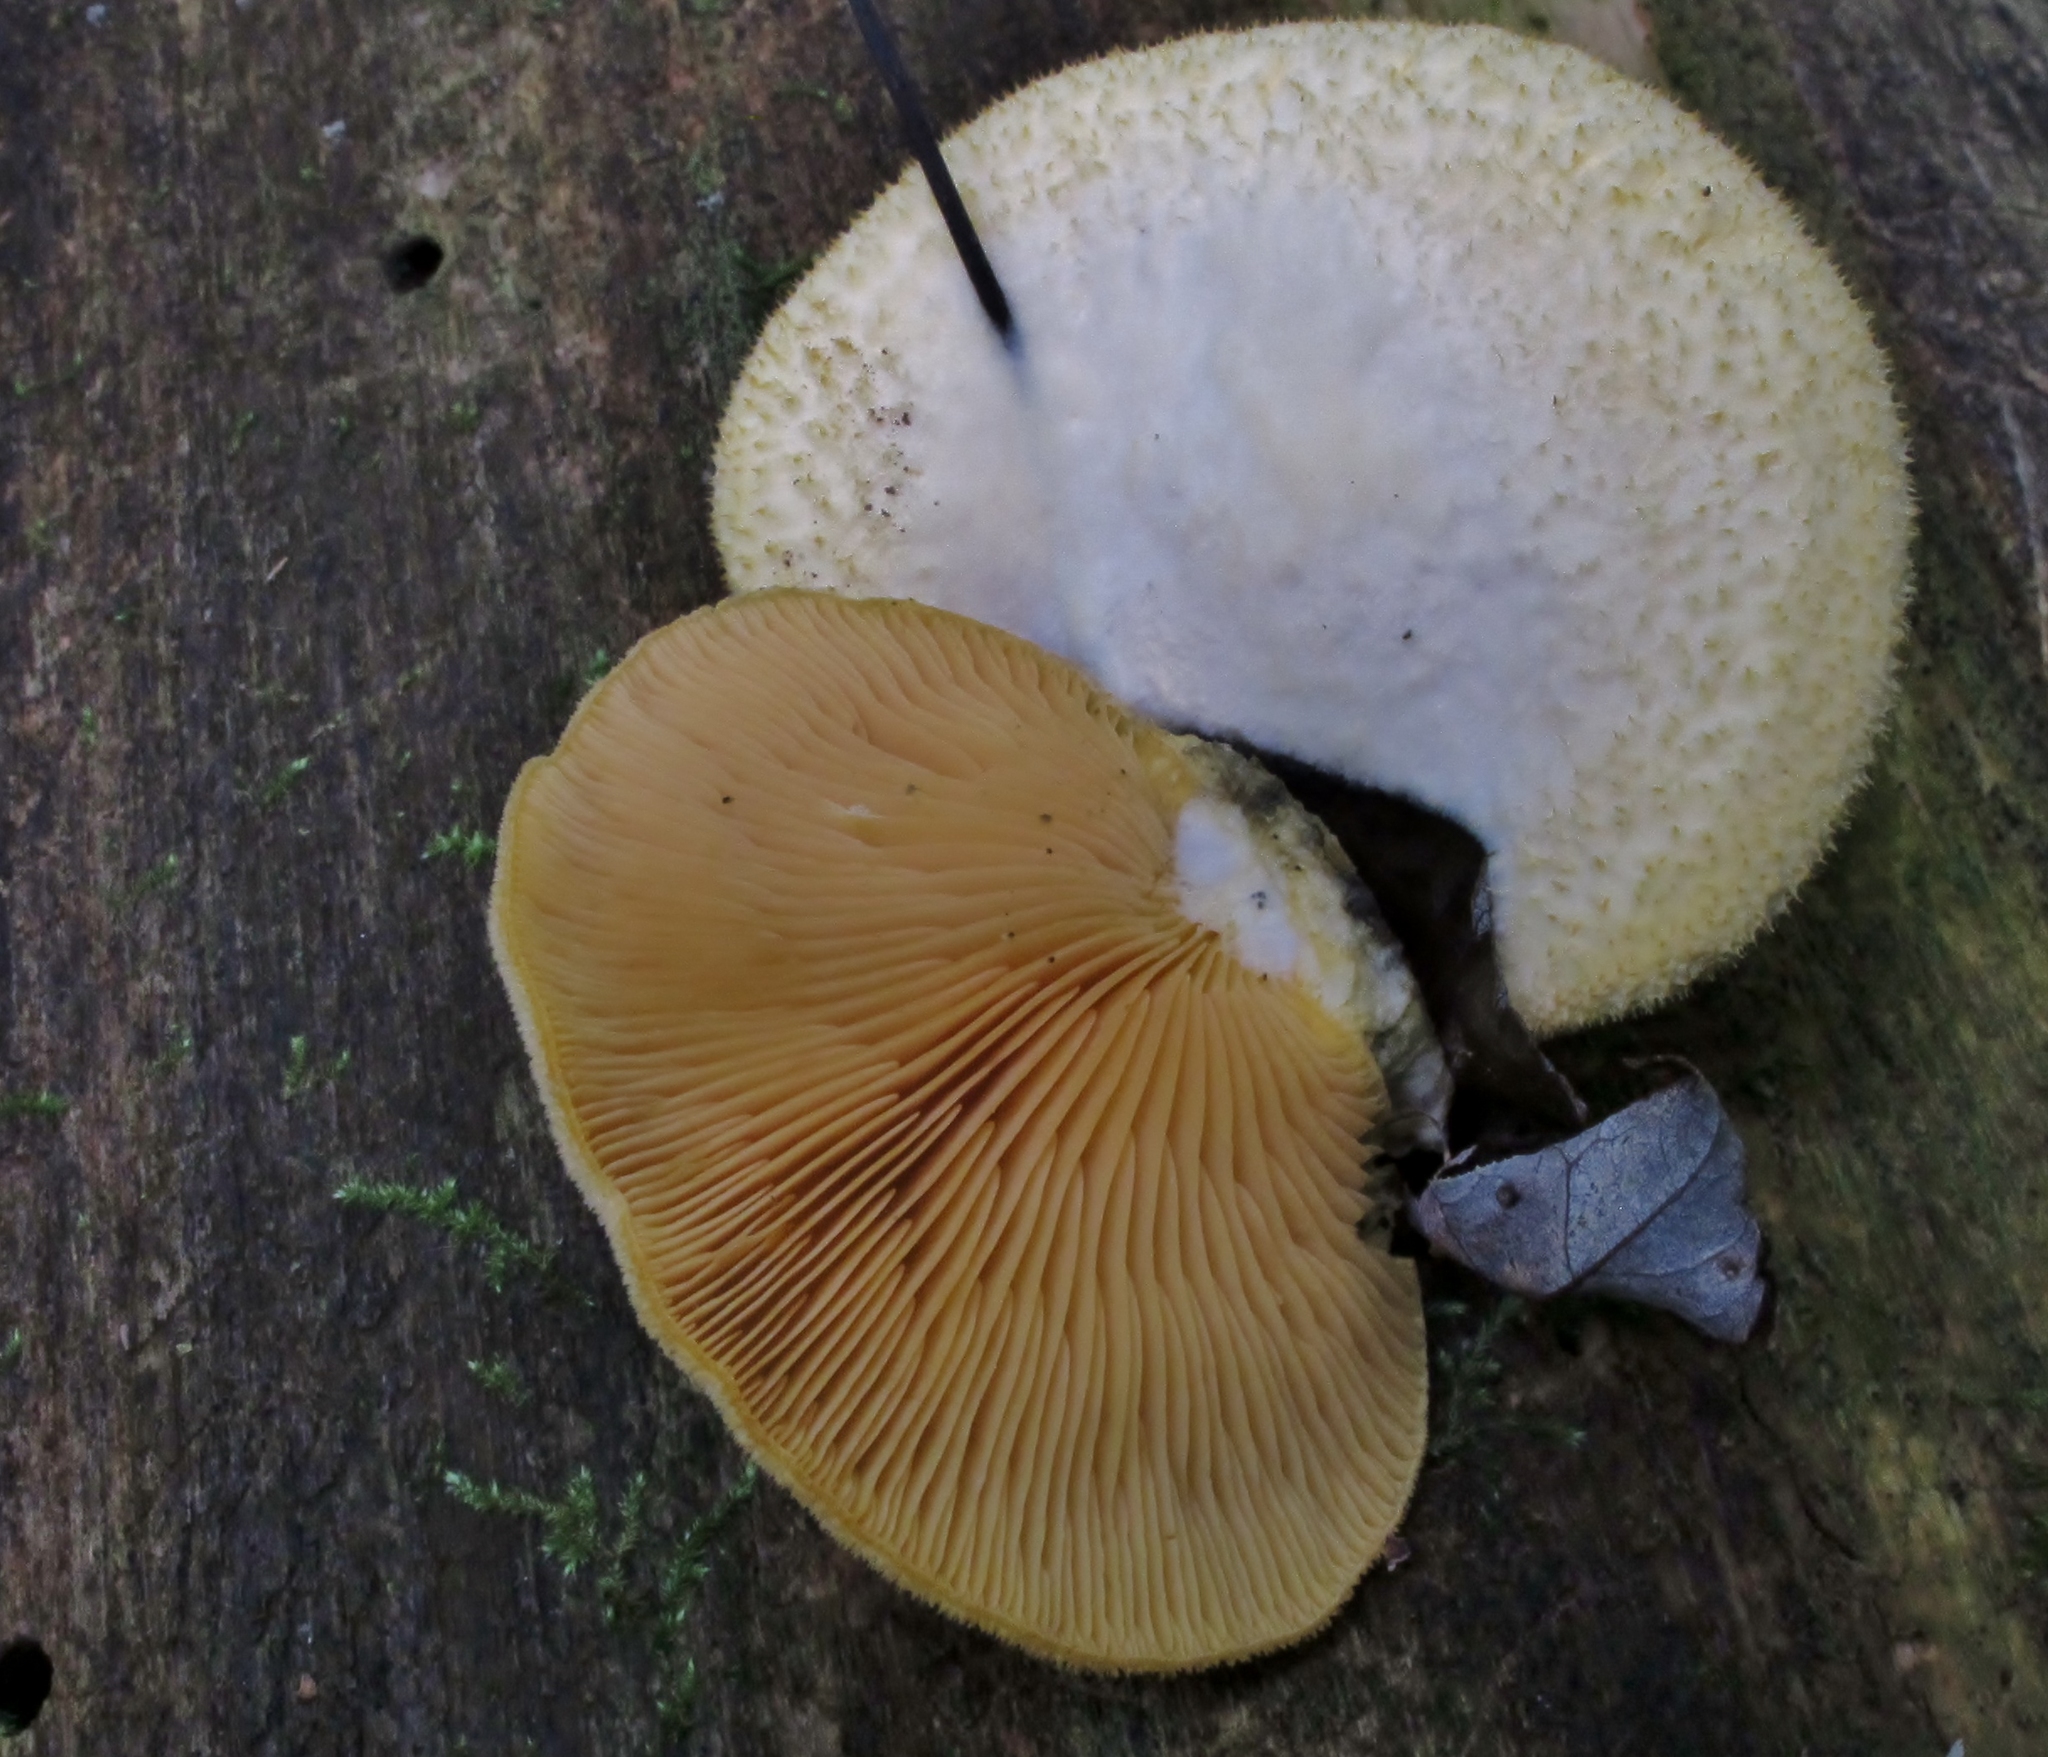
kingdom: Fungi
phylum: Basidiomycota
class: Agaricomycetes
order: Agaricales
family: Phyllotopsidaceae
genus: Phyllotopsis
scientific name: Phyllotopsis nidulans
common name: Orange mock oyster
